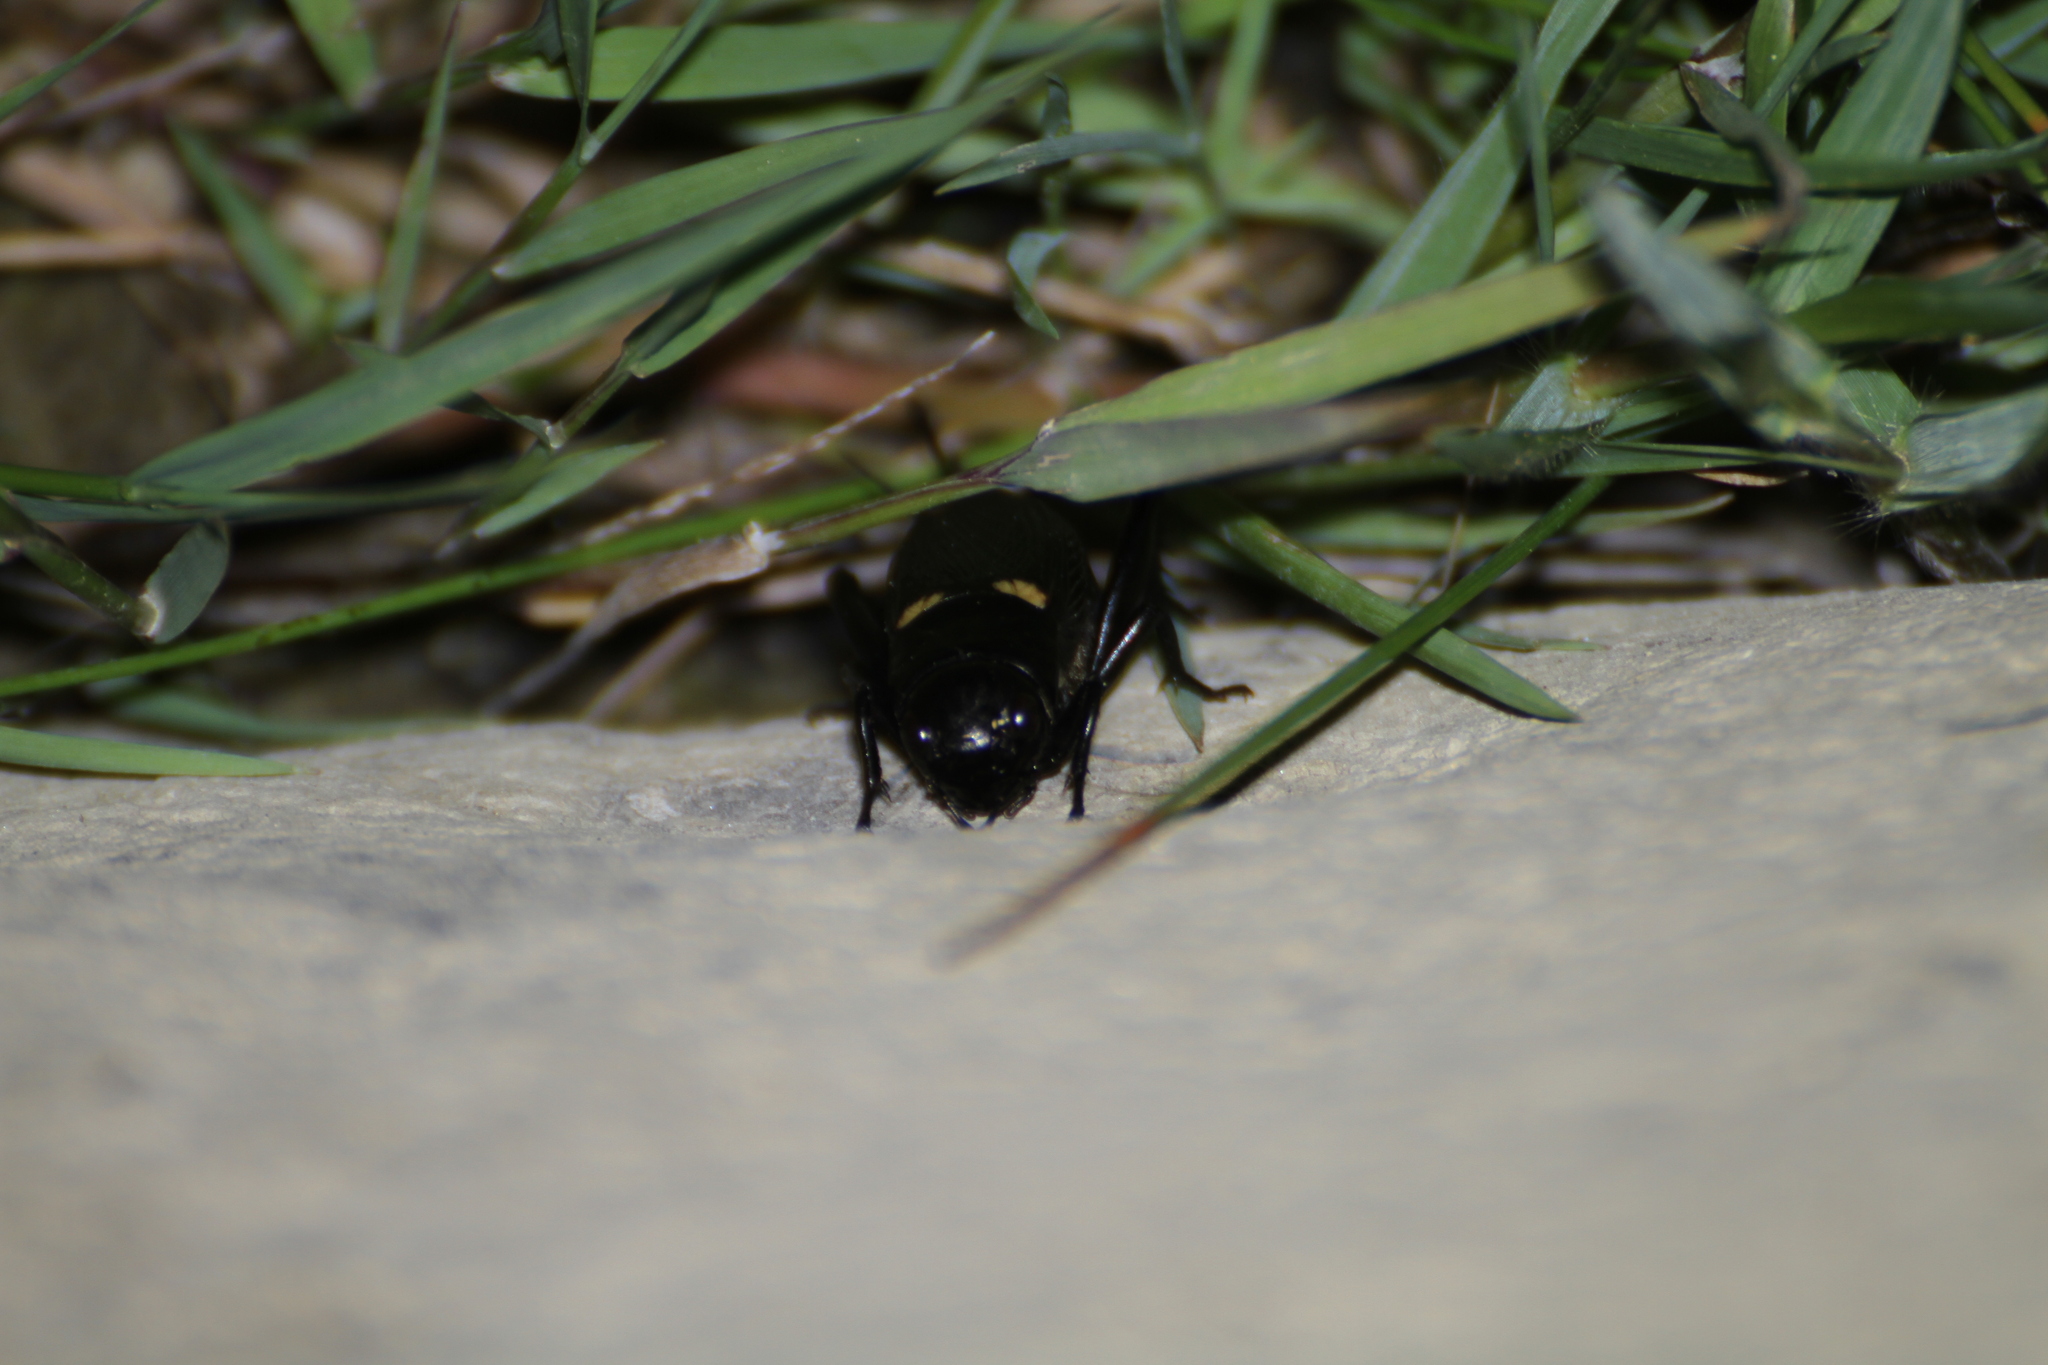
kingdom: Animalia
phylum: Arthropoda
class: Insecta
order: Orthoptera
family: Gryllidae
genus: Gryllus
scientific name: Gryllus bimaculatus
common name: Two-spotted cricket
